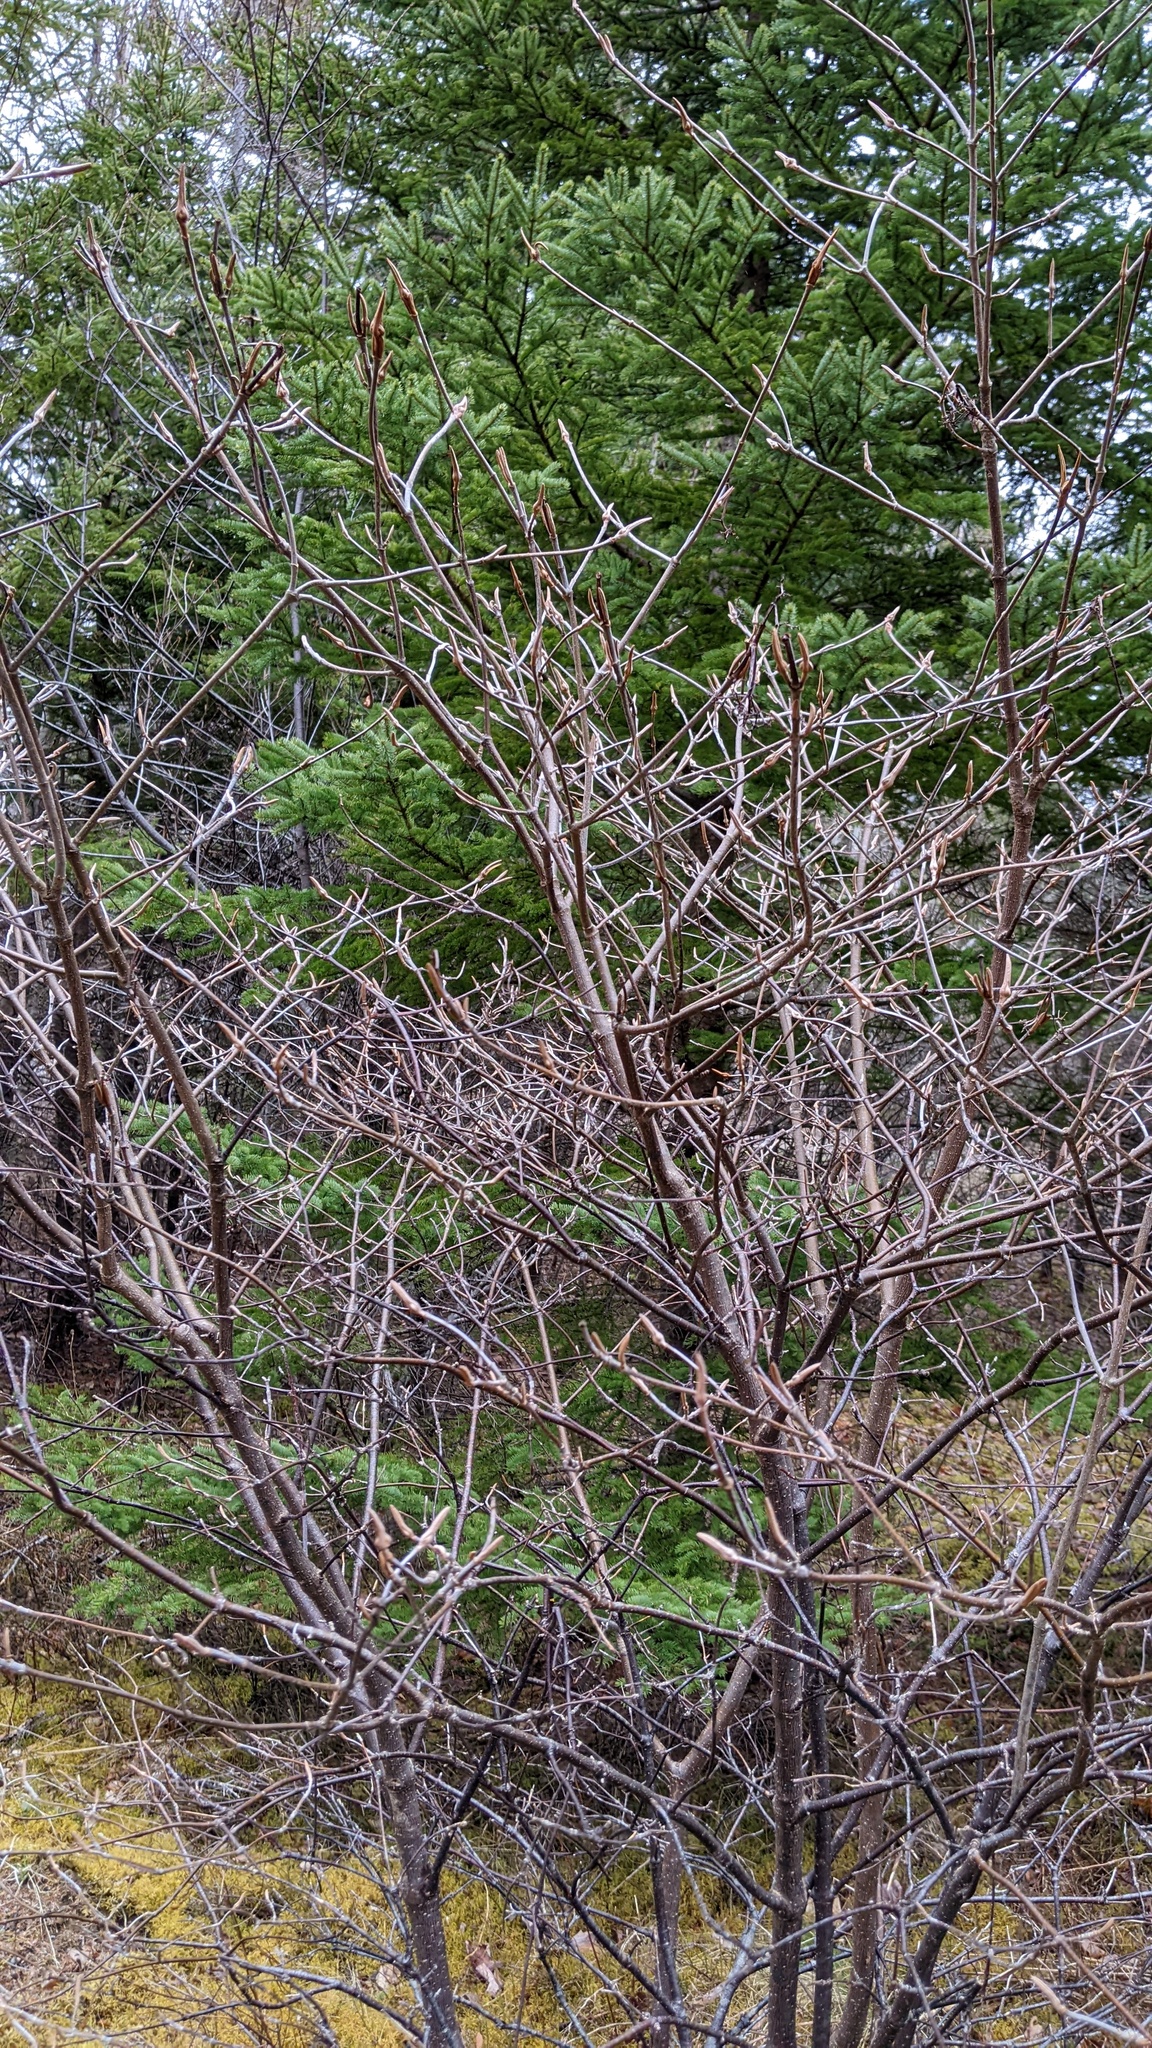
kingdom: Plantae
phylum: Tracheophyta
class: Magnoliopsida
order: Dipsacales
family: Viburnaceae
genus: Viburnum
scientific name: Viburnum cassinoides
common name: Swamp haw
